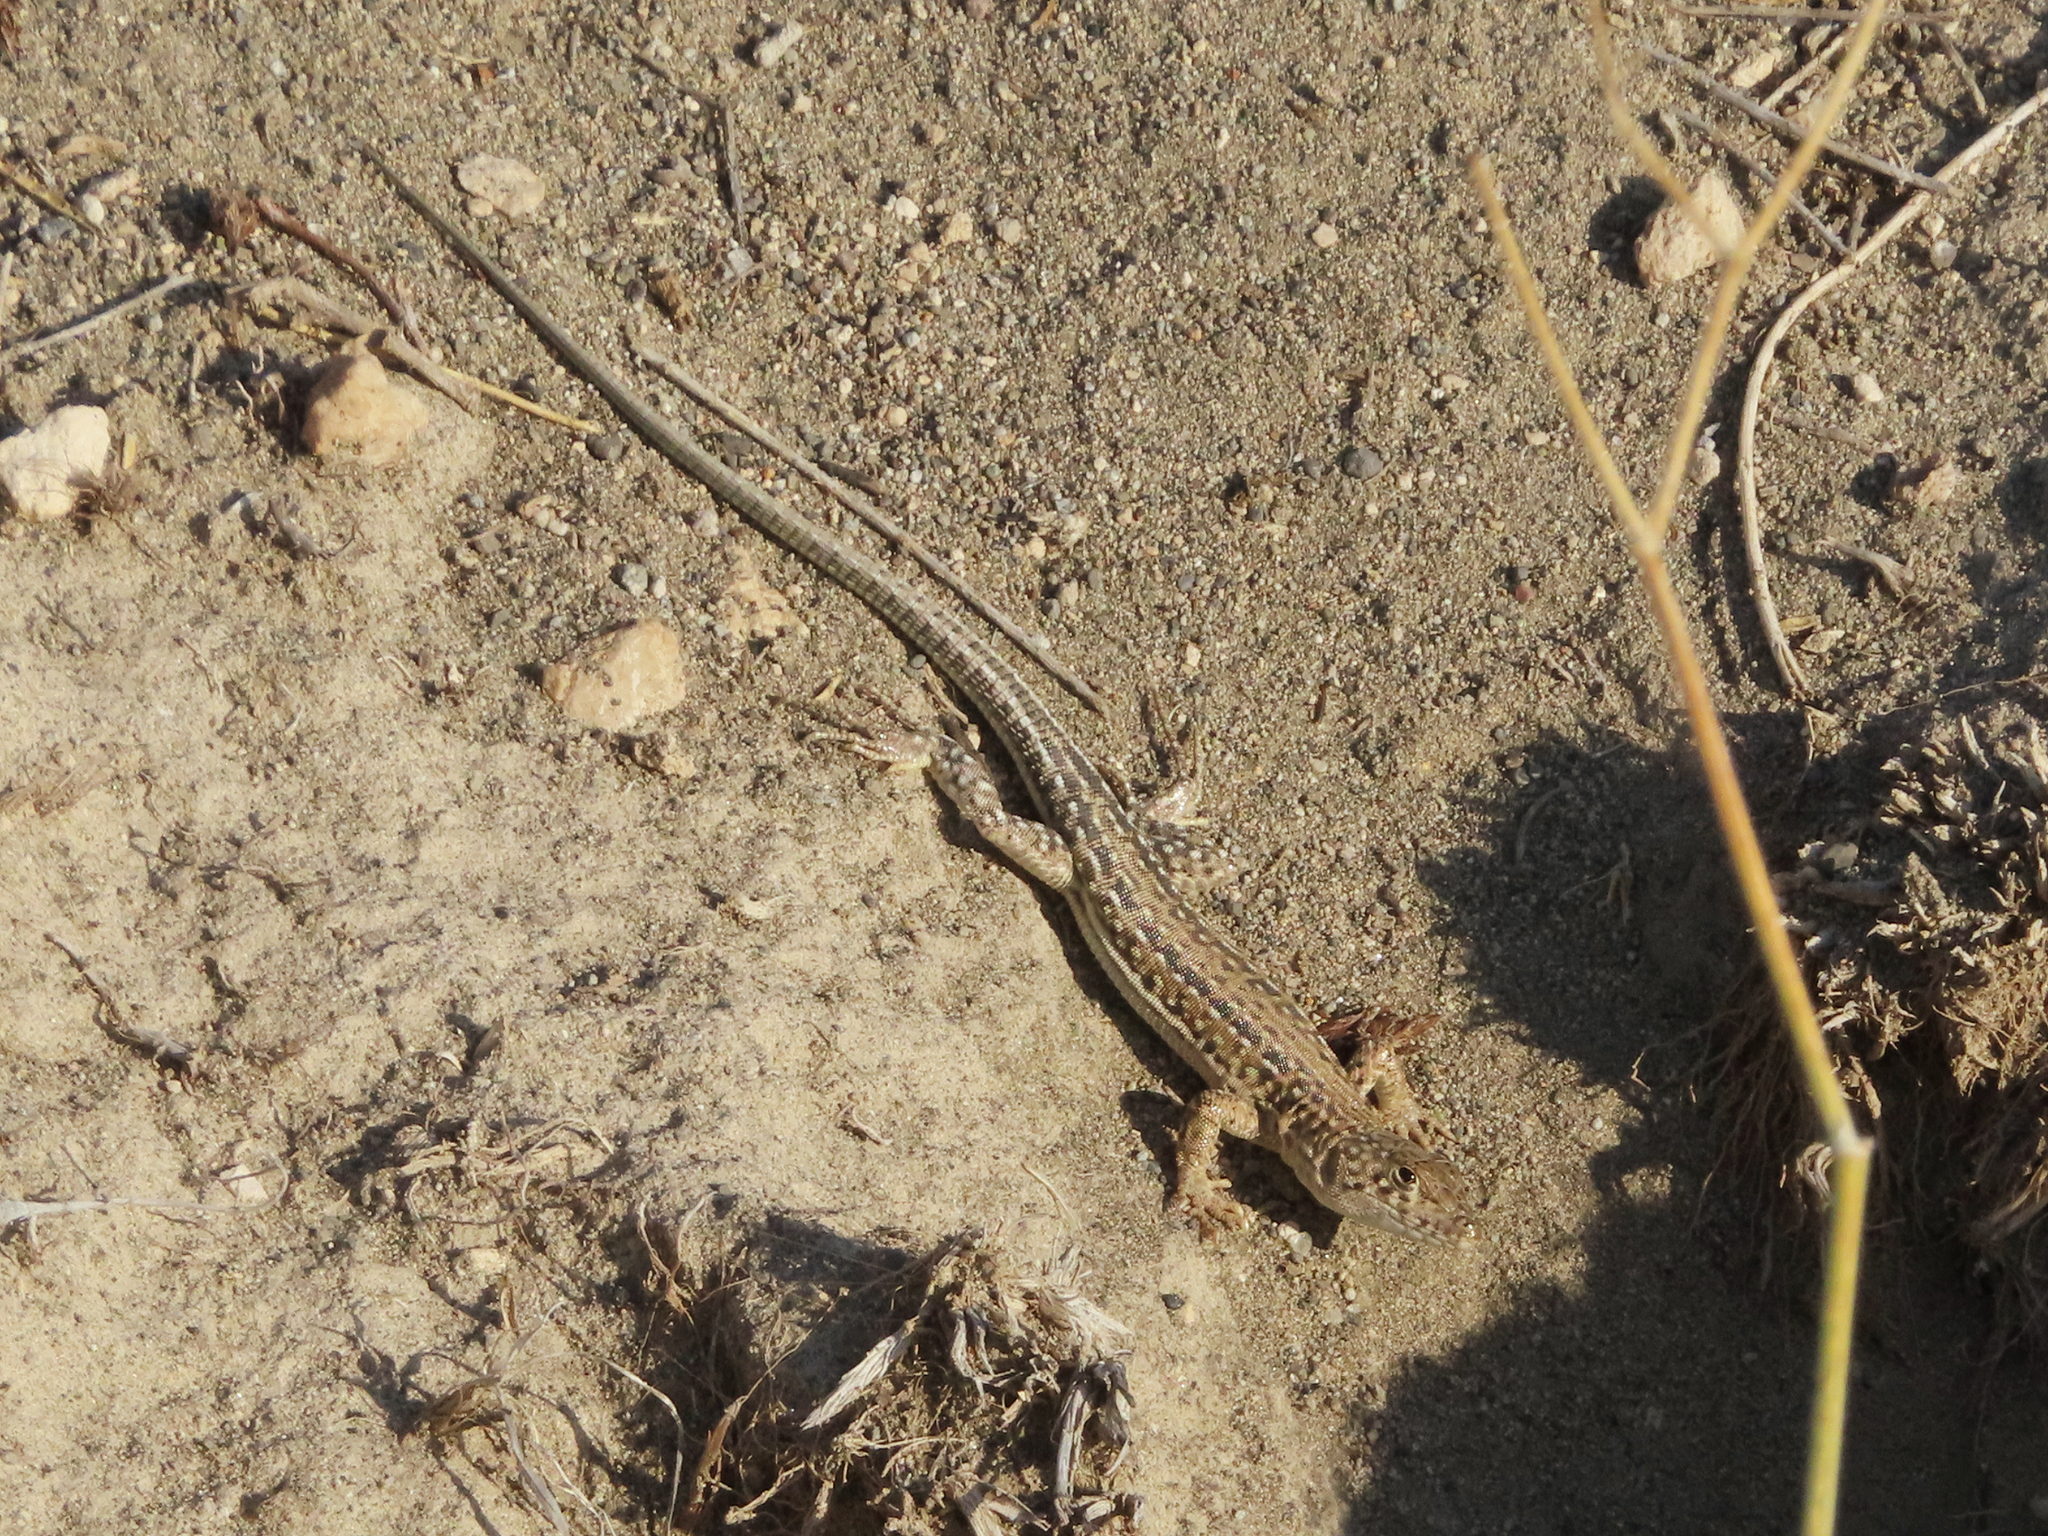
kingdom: Animalia
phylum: Chordata
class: Squamata
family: Lacertidae
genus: Eremias
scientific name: Eremias strauchi
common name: Strauch's racerunner
